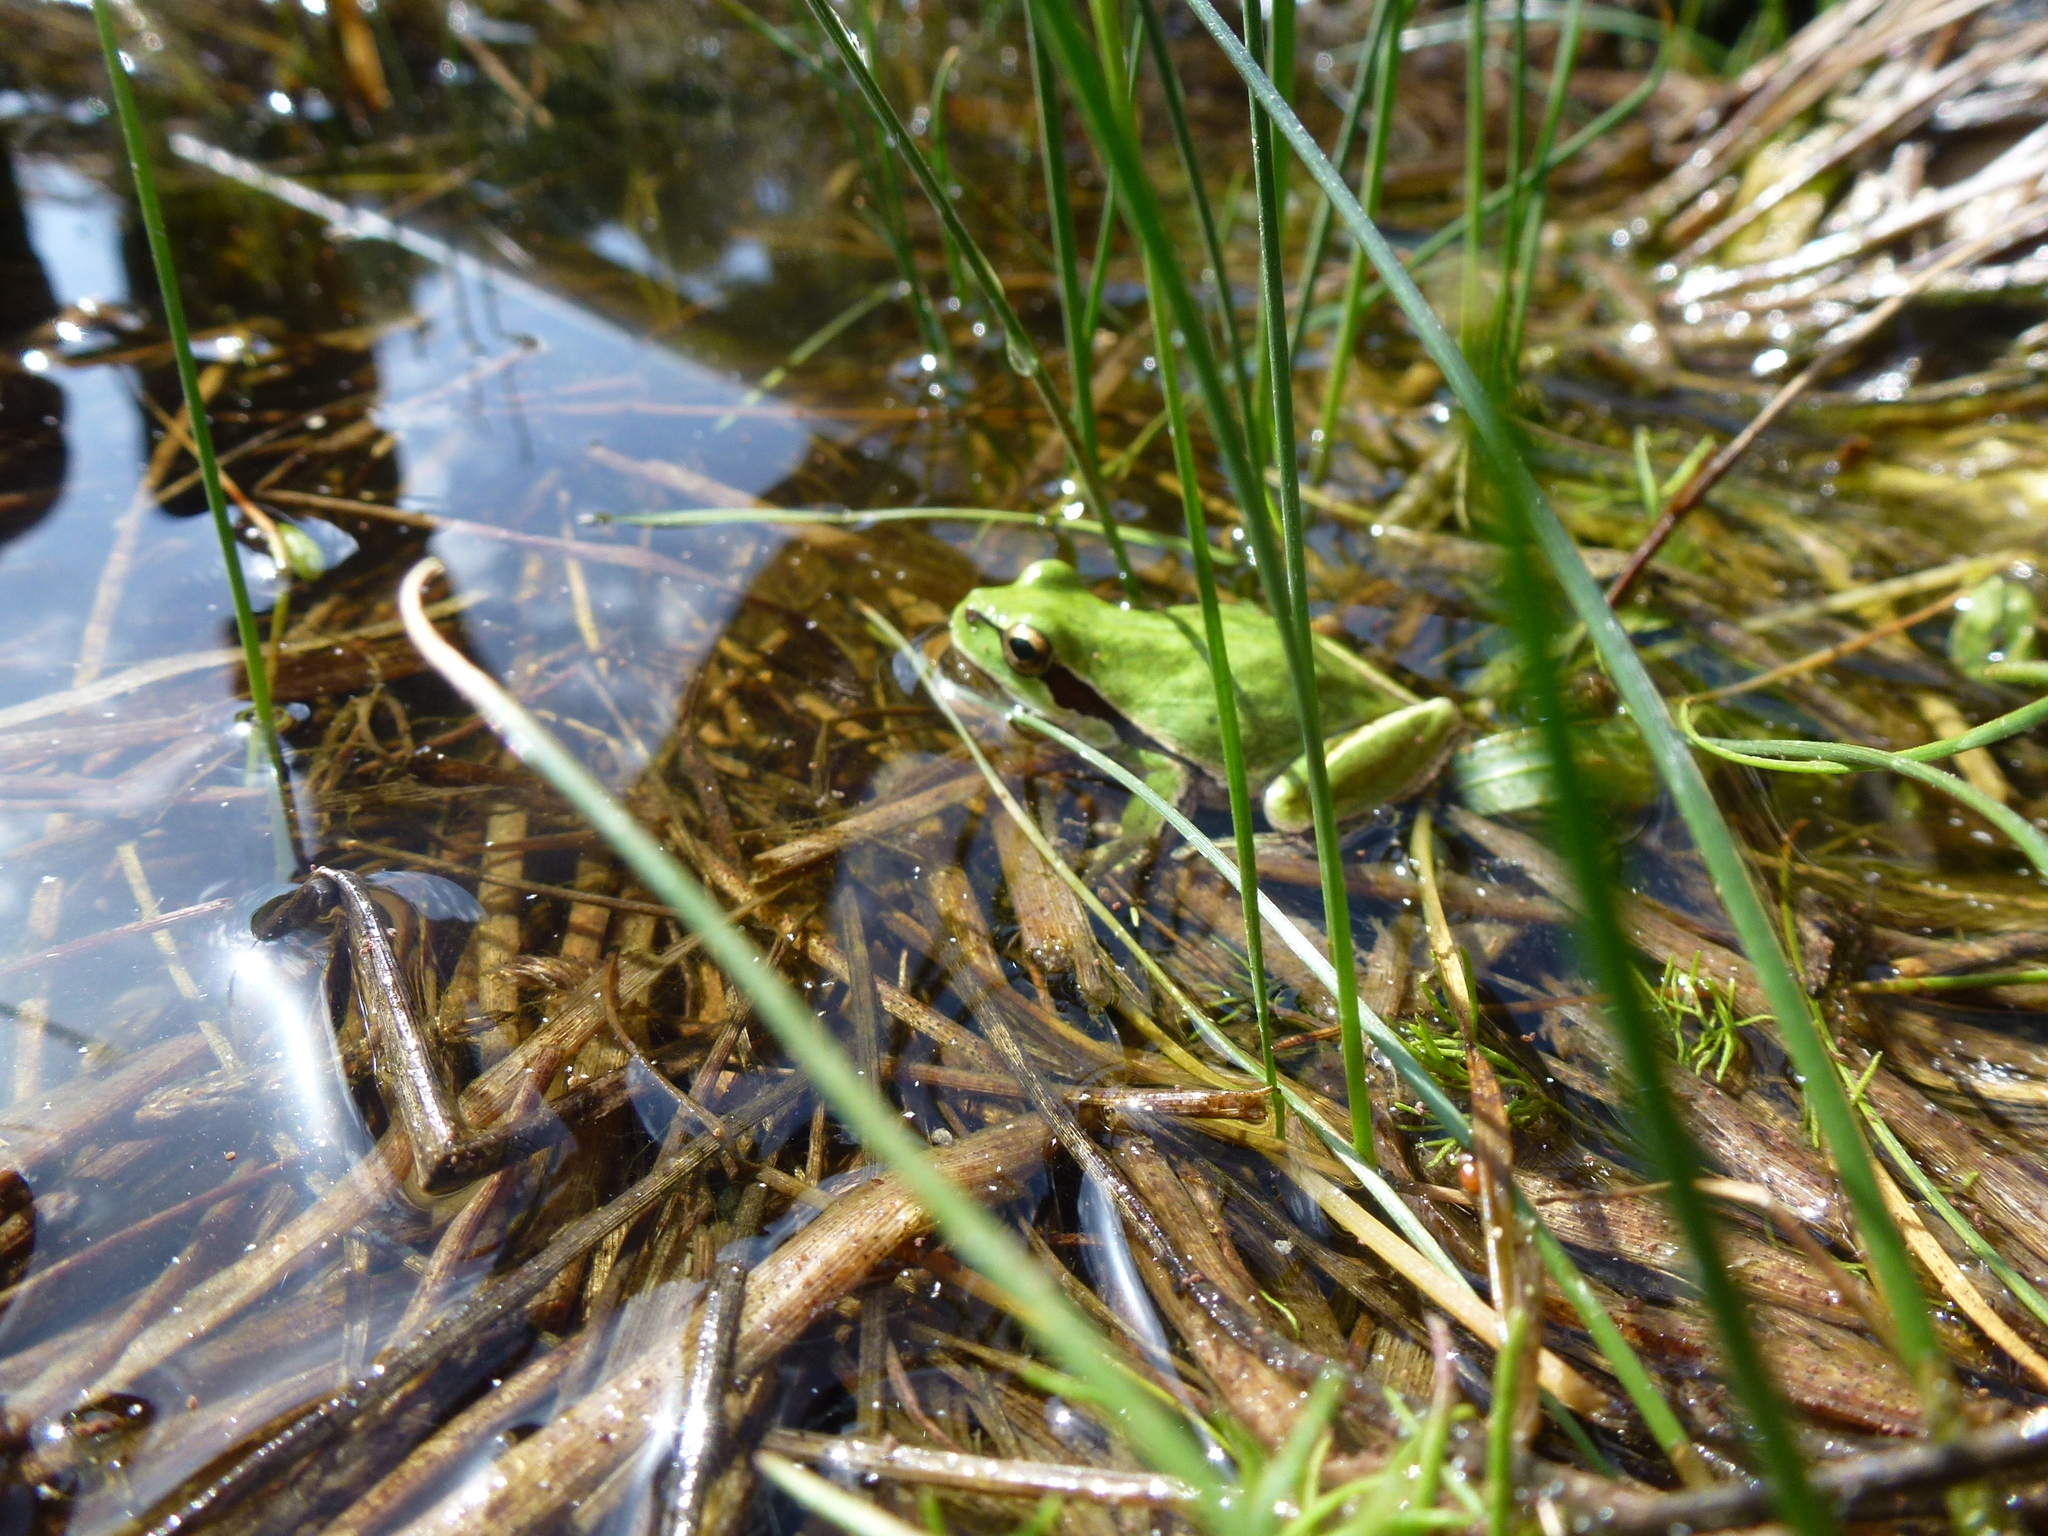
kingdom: Animalia
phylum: Chordata
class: Amphibia
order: Anura
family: Hylidae
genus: Hyla
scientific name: Hyla savignyi
